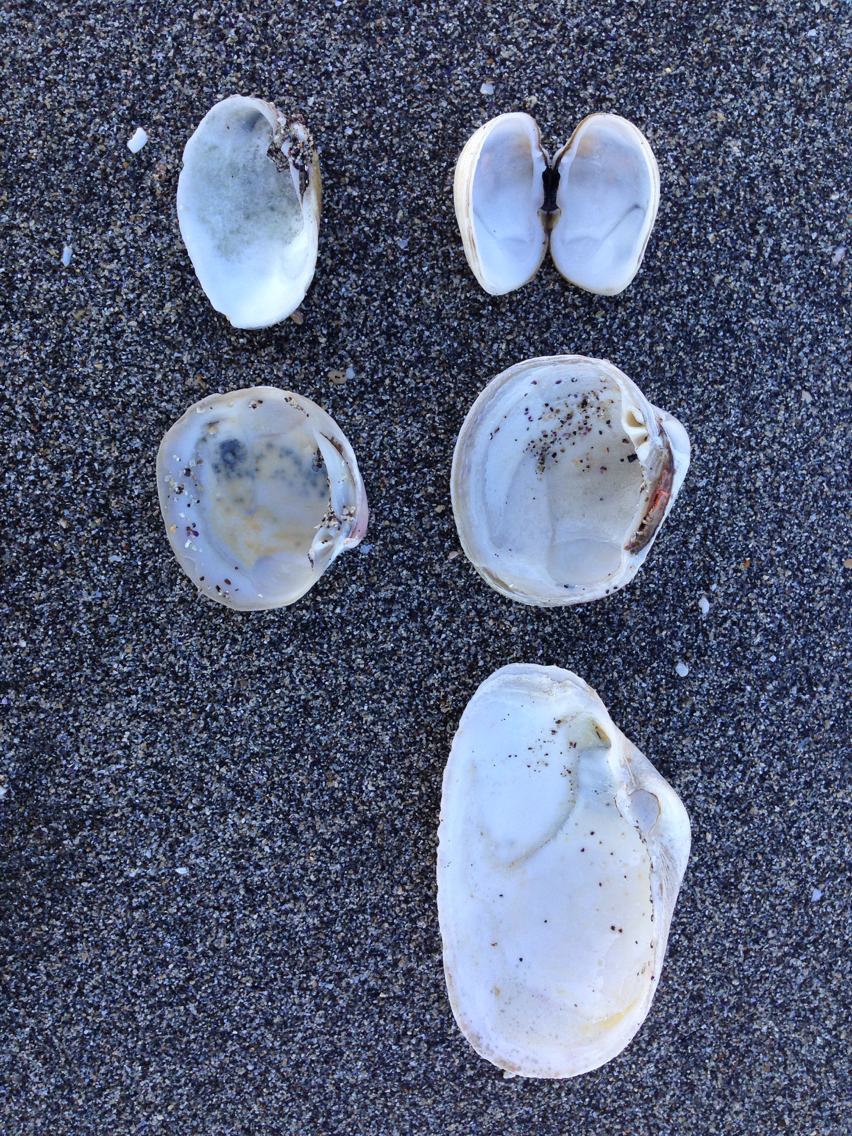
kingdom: Animalia
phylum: Mollusca
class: Bivalvia
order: Venerida
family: Veneridae
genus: Petricola
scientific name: Petricola carditoides
